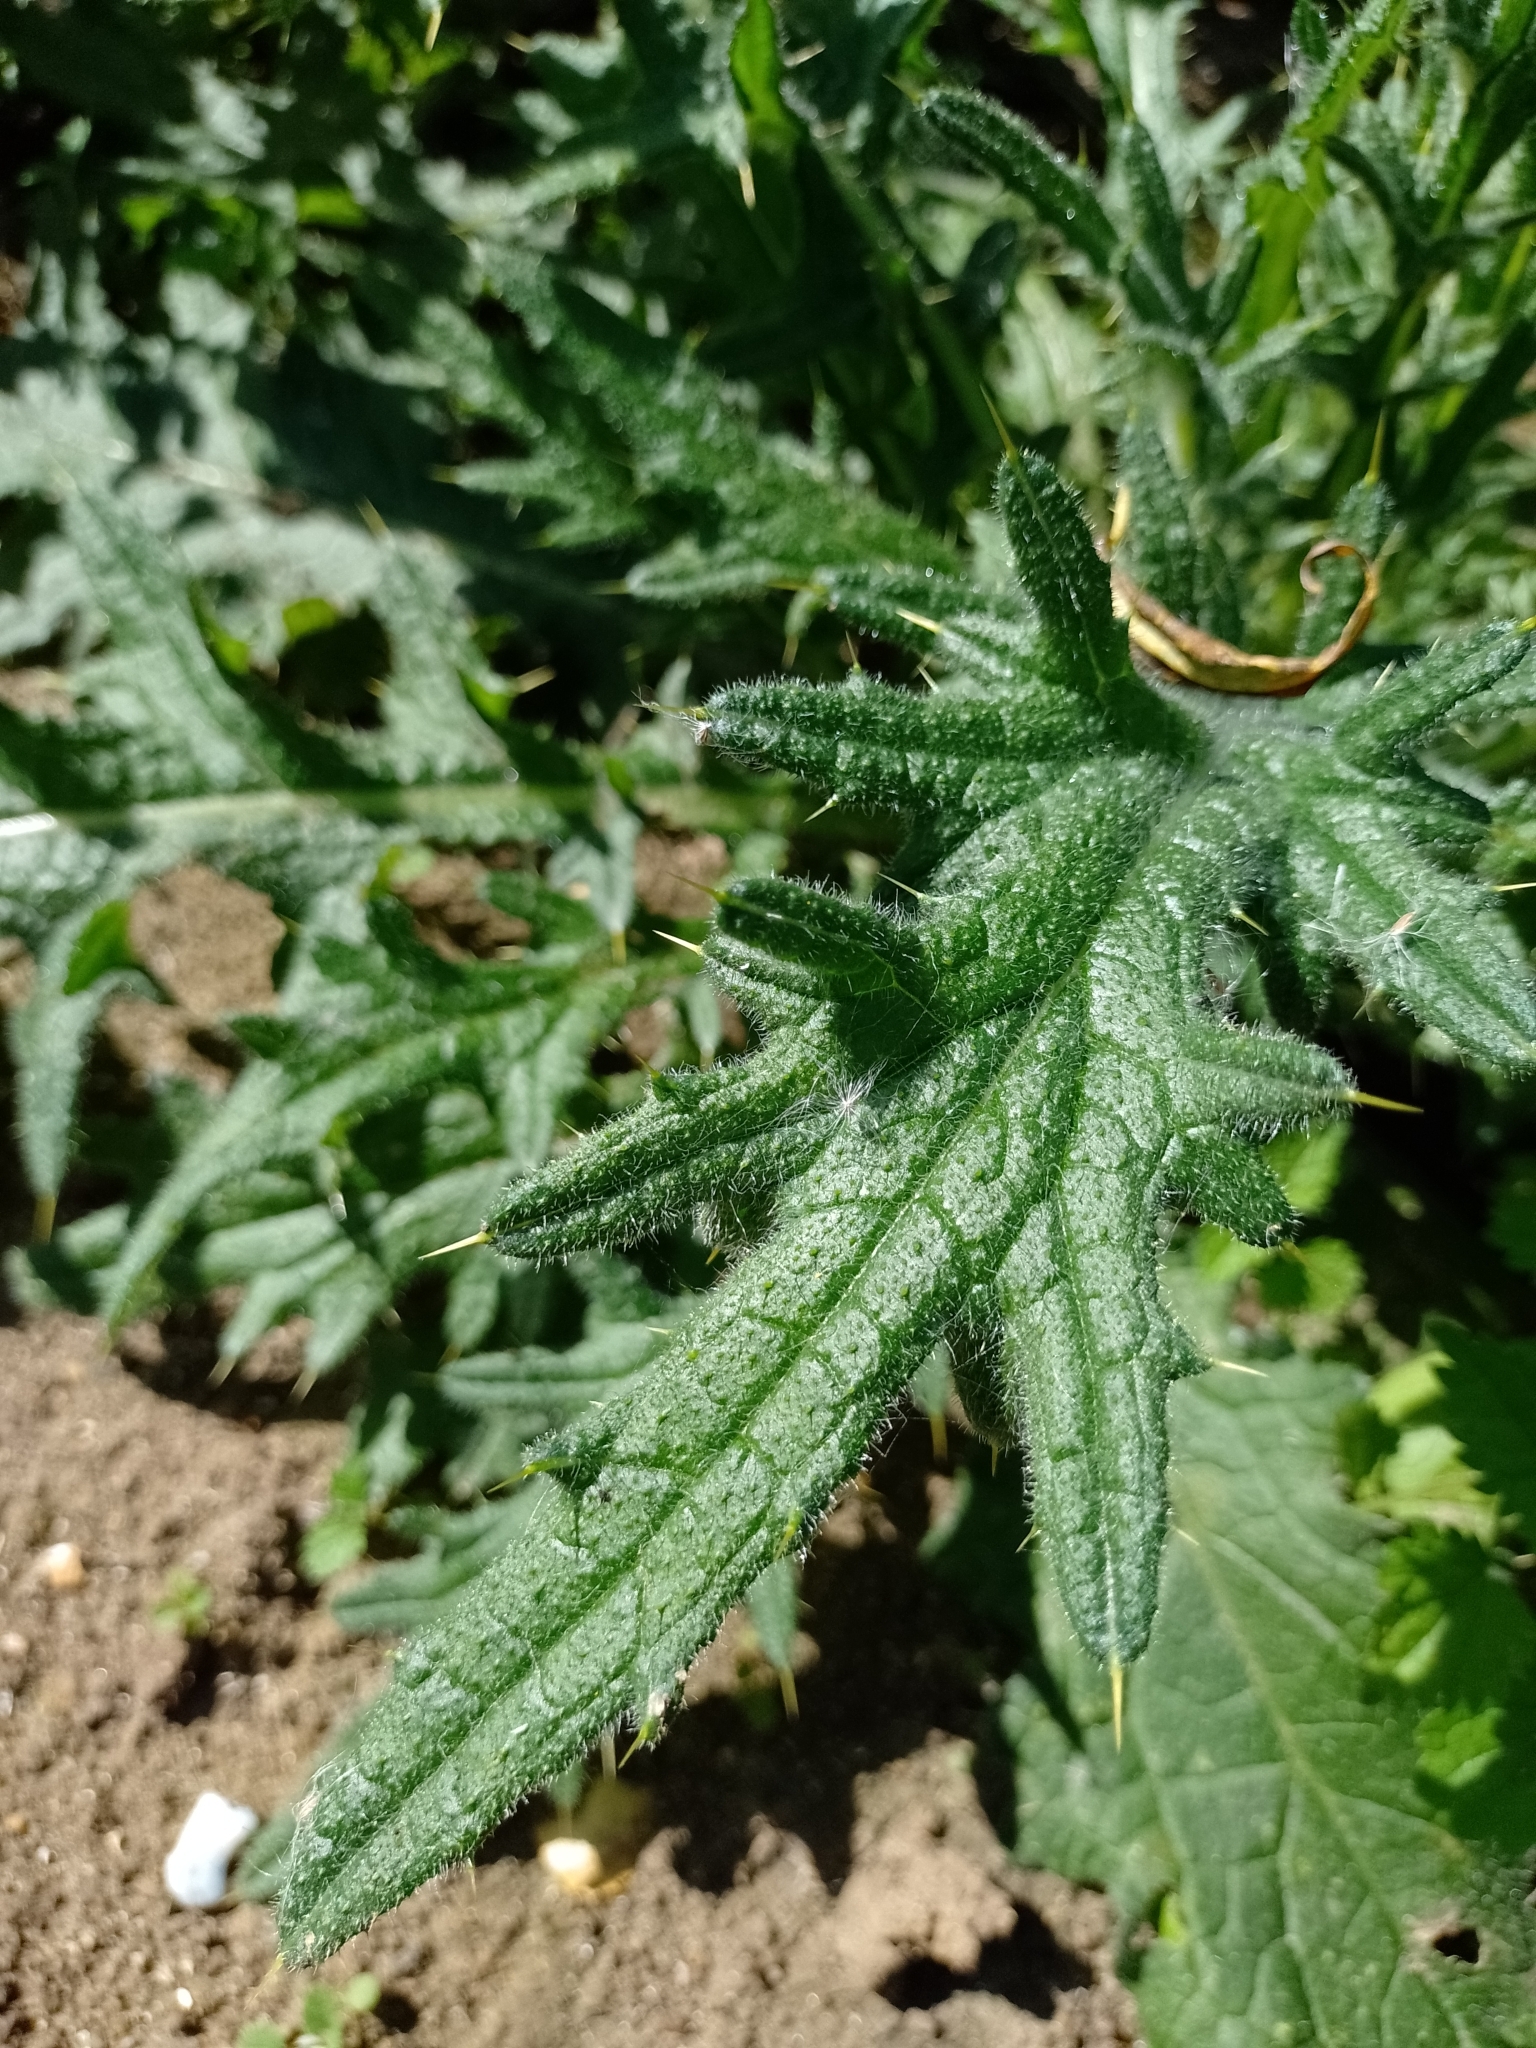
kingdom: Plantae
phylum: Tracheophyta
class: Magnoliopsida
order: Asterales
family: Asteraceae
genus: Cirsium
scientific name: Cirsium vulgare
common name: Bull thistle
